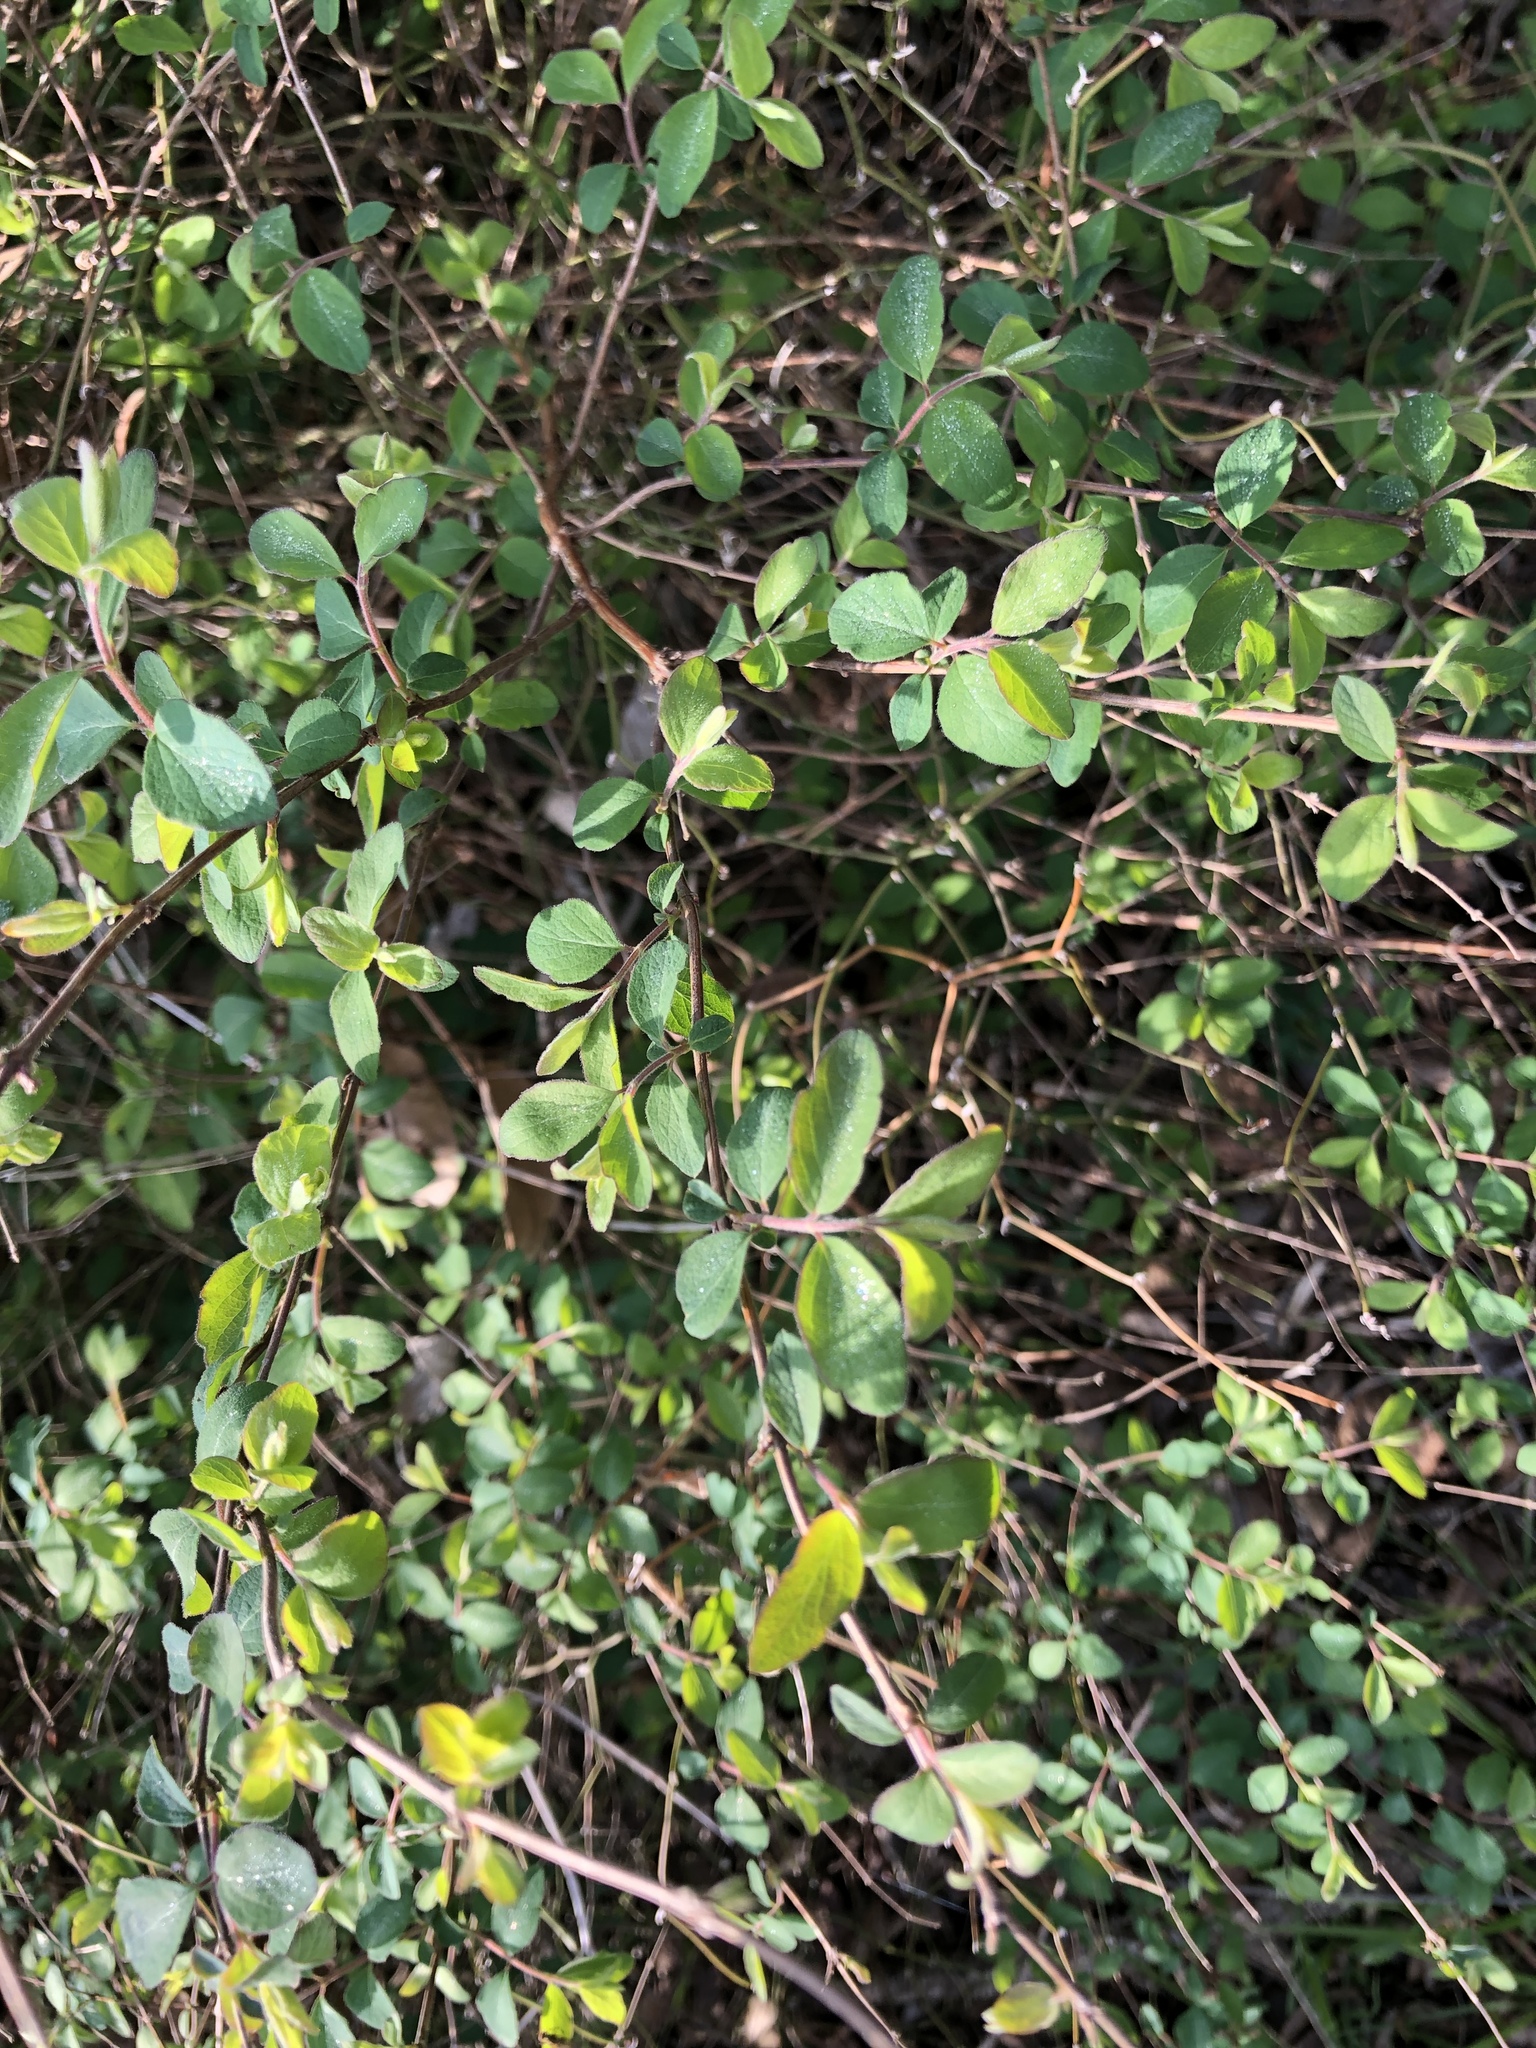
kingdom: Plantae
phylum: Tracheophyta
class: Magnoliopsida
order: Dipsacales
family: Caprifoliaceae
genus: Symphoricarpos
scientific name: Symphoricarpos orbiculatus
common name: Coralberry
